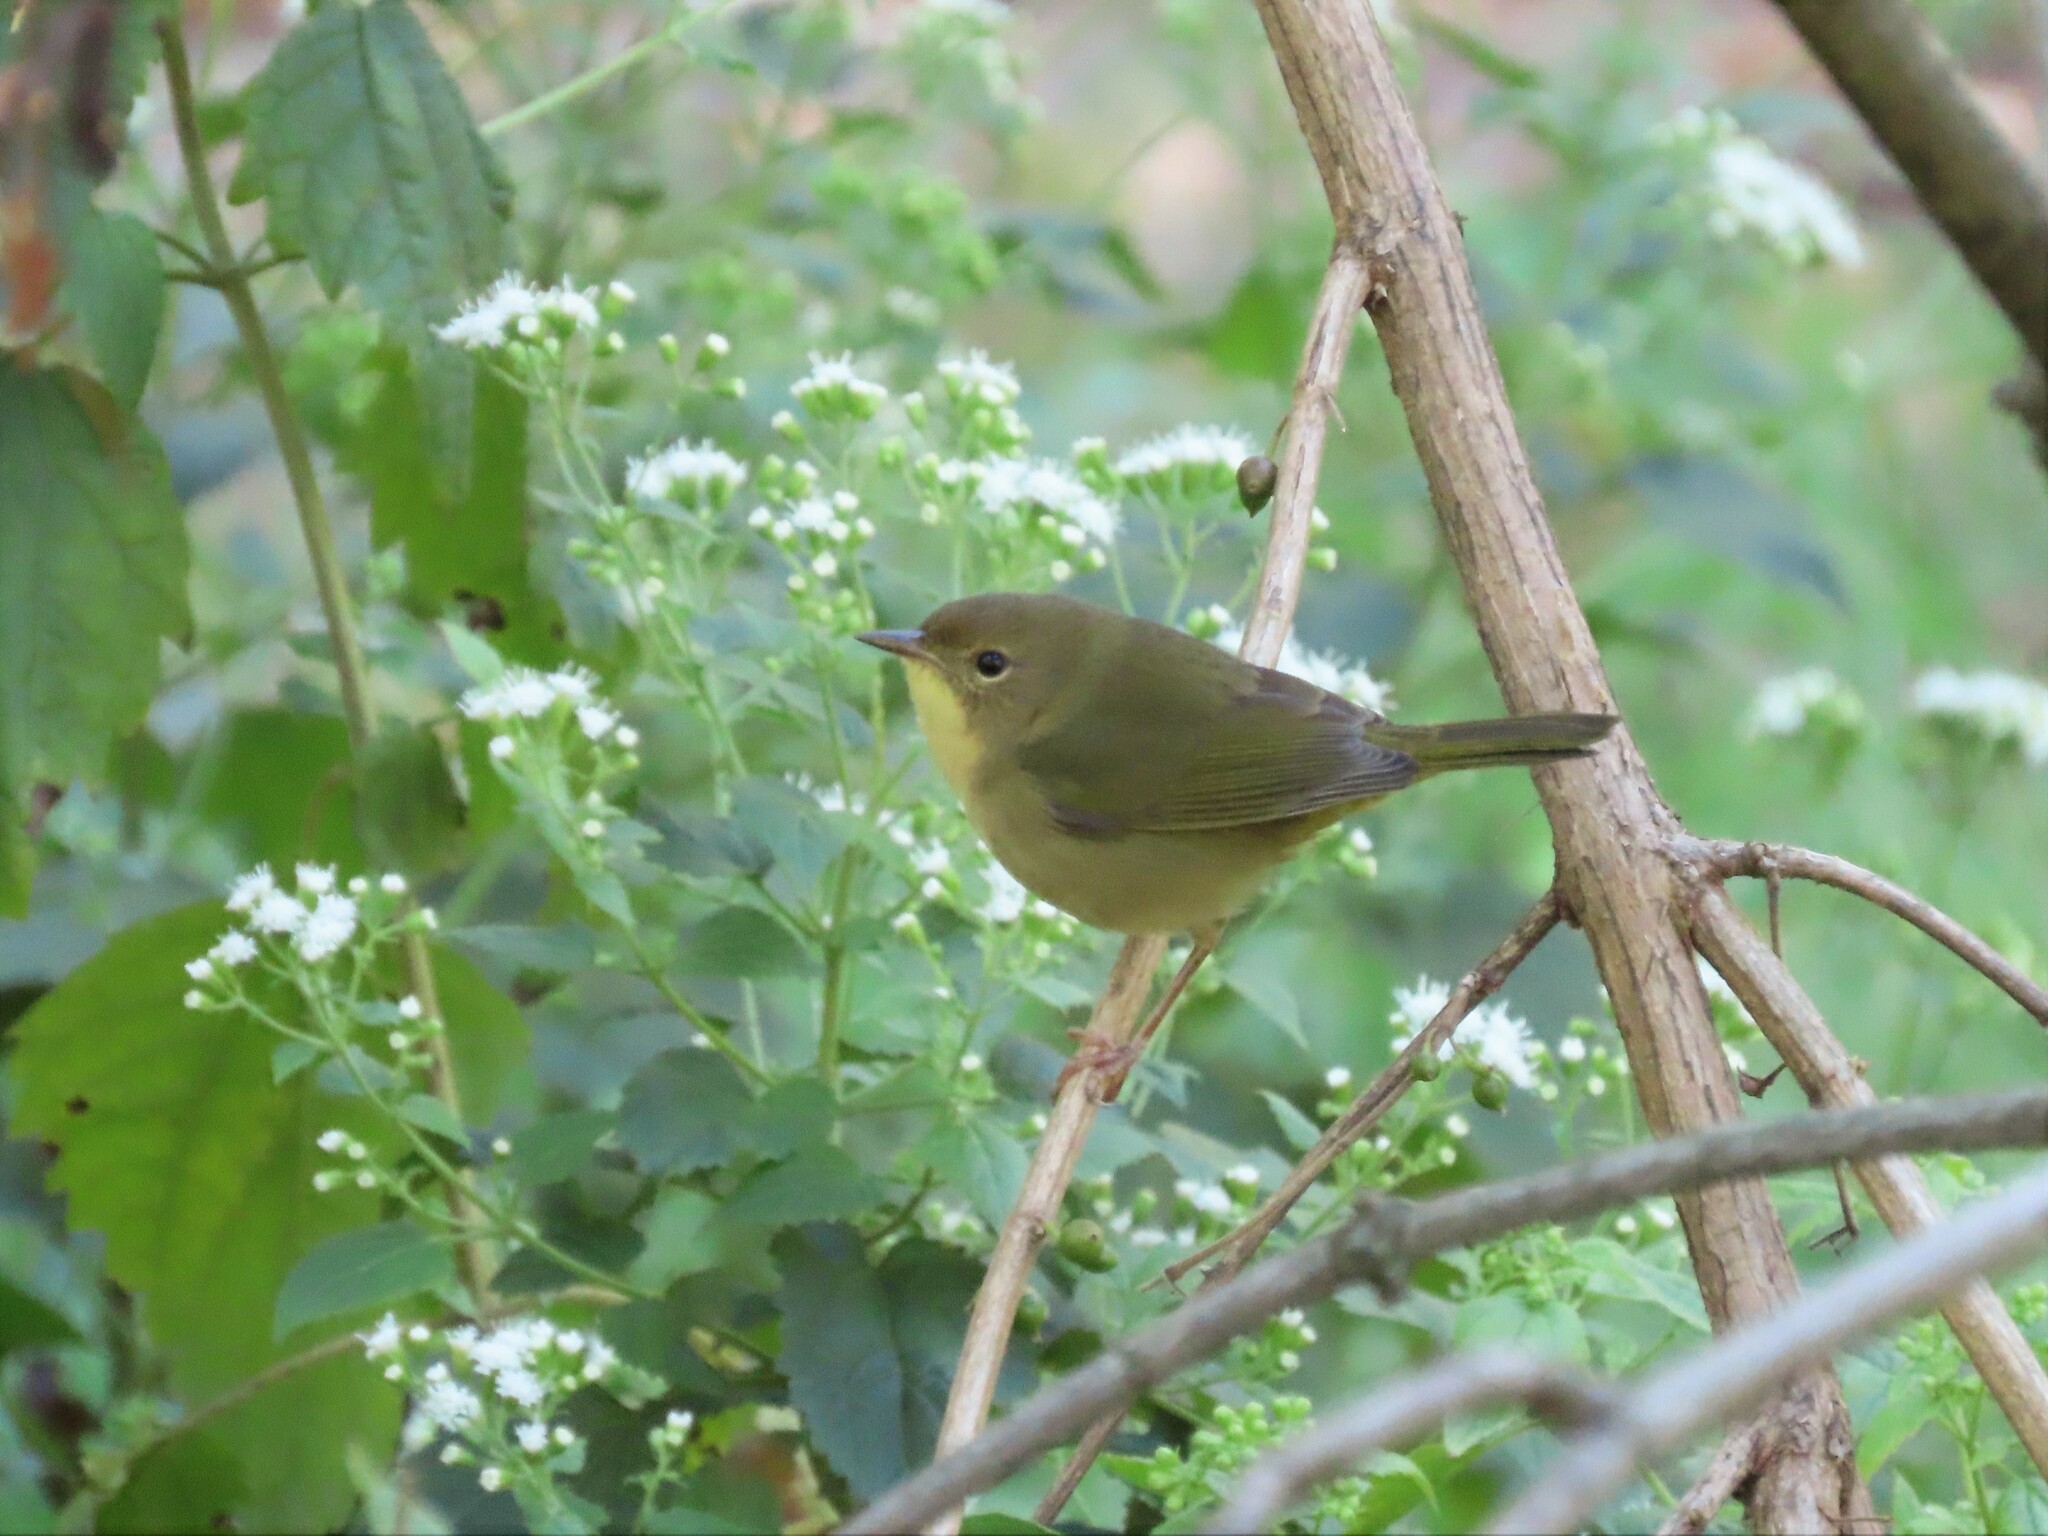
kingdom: Animalia
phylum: Chordata
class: Aves
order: Passeriformes
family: Parulidae
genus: Geothlypis
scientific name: Geothlypis trichas
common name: Common yellowthroat
